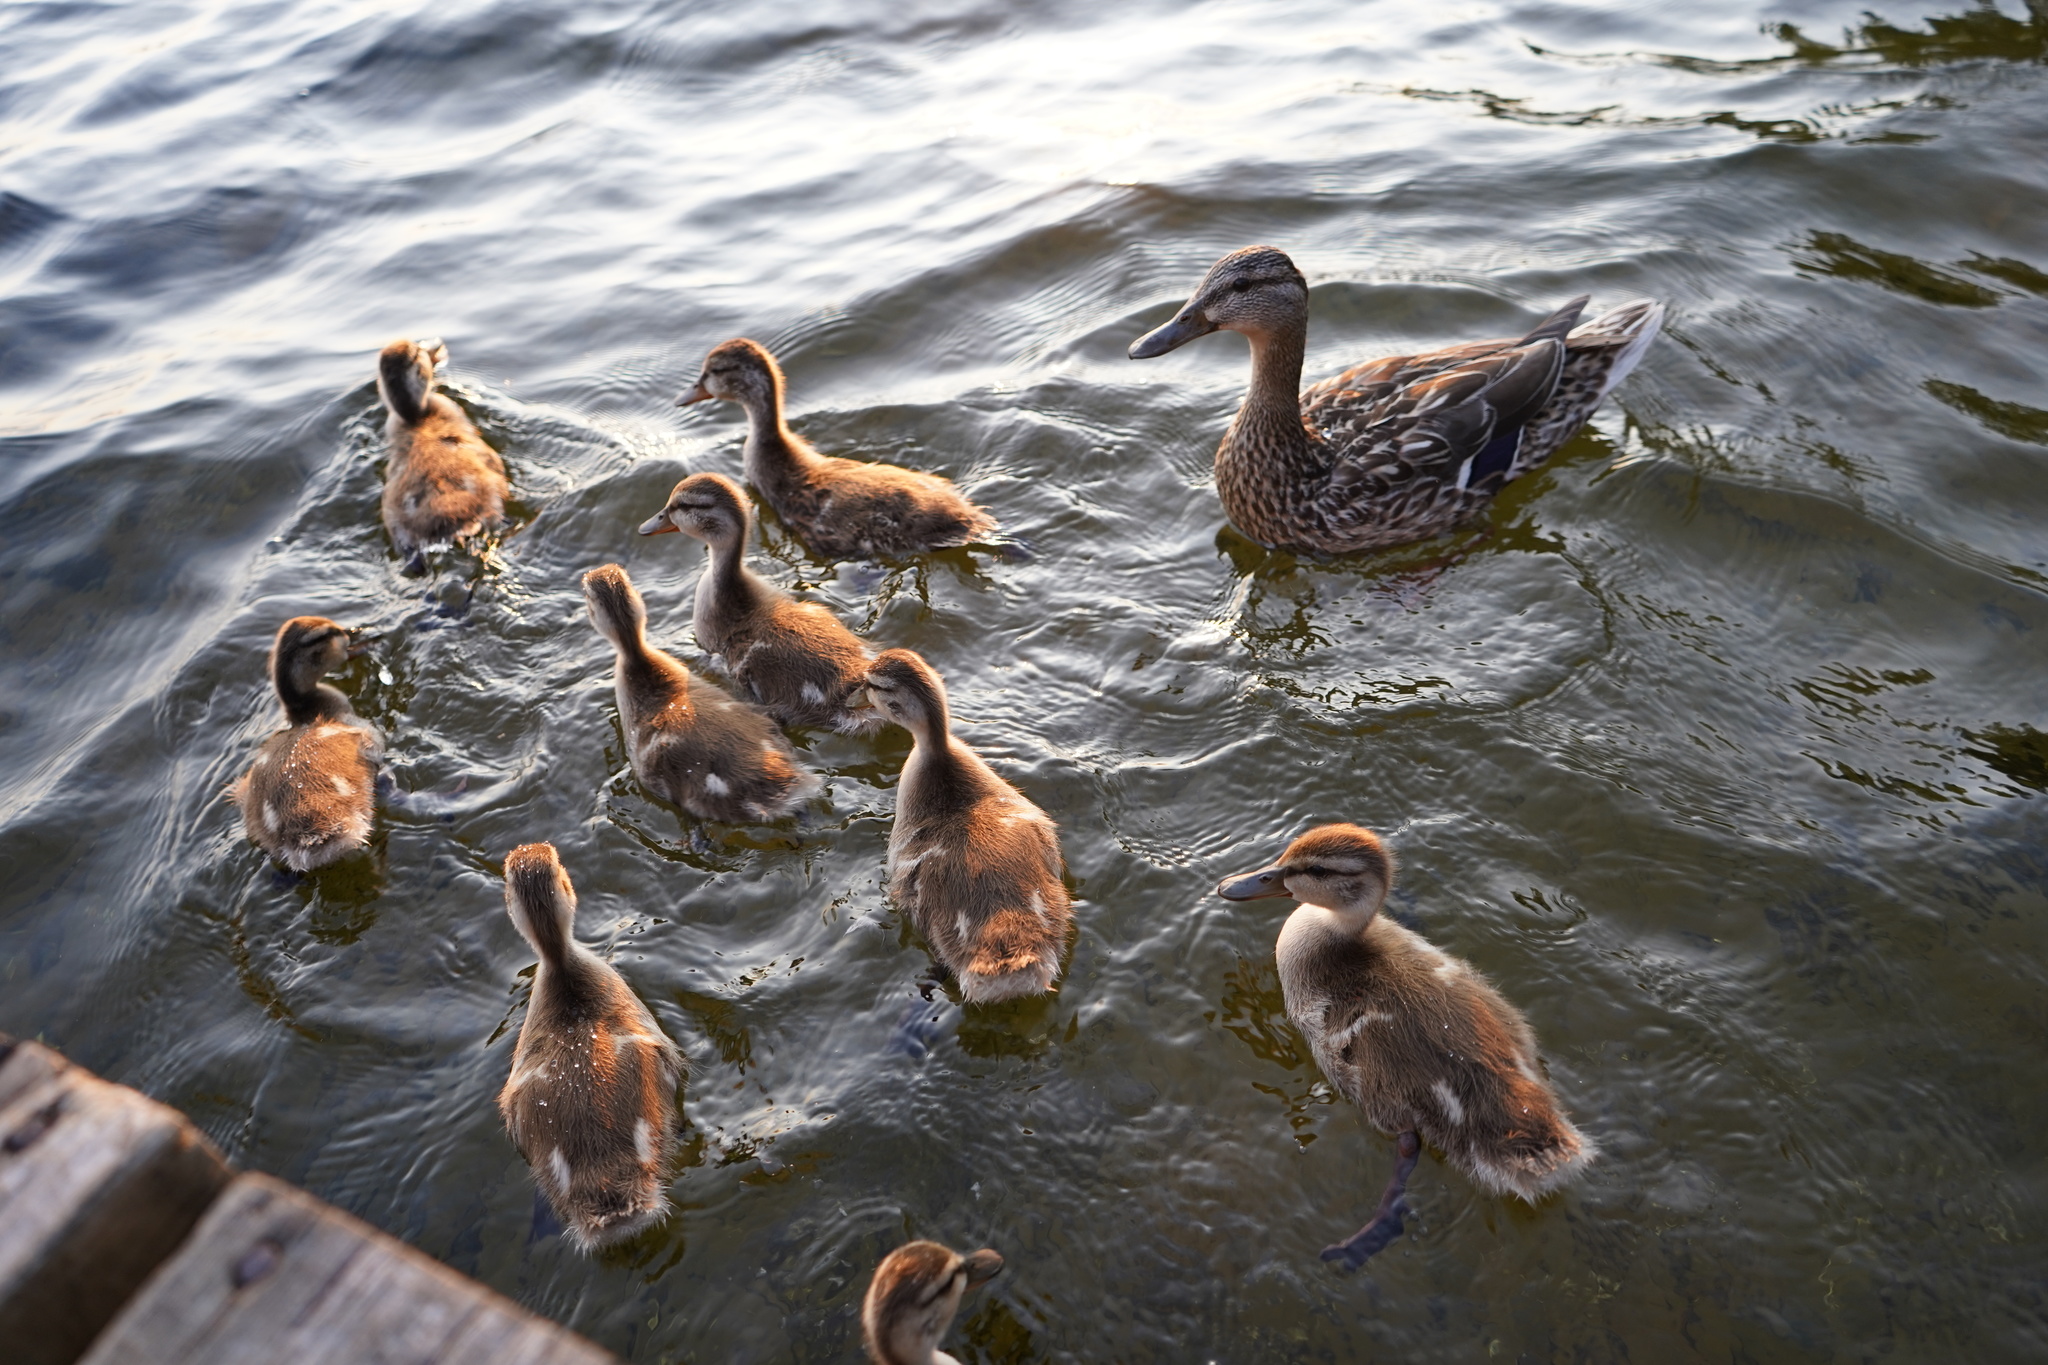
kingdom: Animalia
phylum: Chordata
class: Aves
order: Anseriformes
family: Anatidae
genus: Anas
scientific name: Anas platyrhynchos
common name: Mallard
